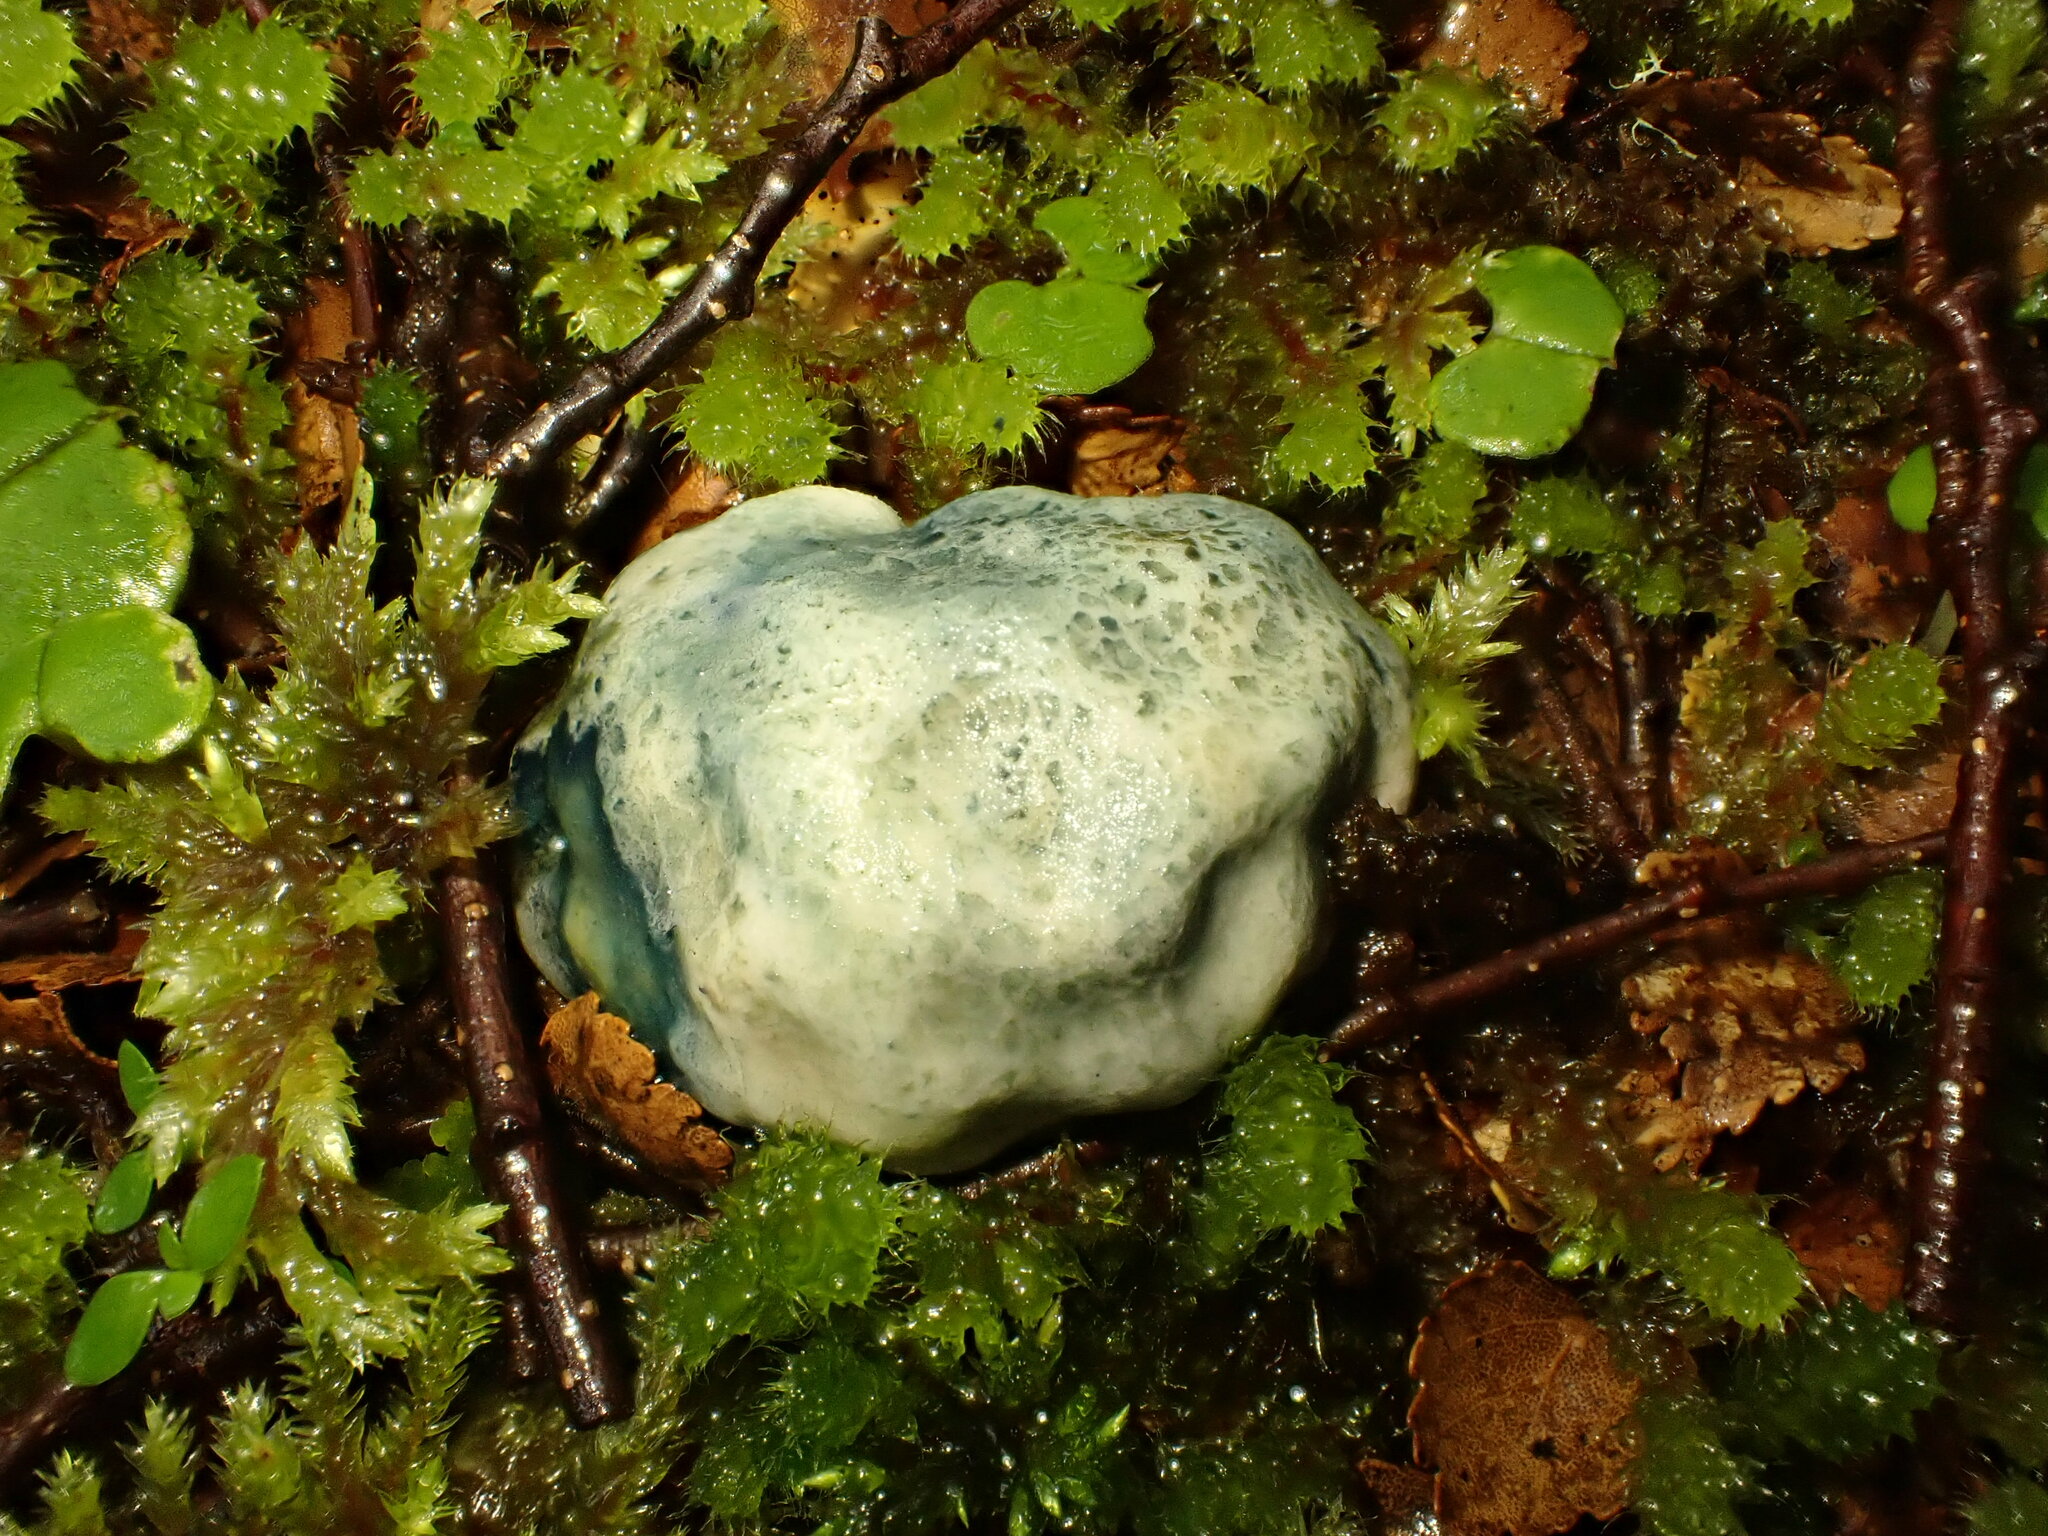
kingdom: Fungi
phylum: Basidiomycota
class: Agaricomycetes
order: Boletales
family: Boletaceae
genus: Leccinum
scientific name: Leccinum pachyderme
